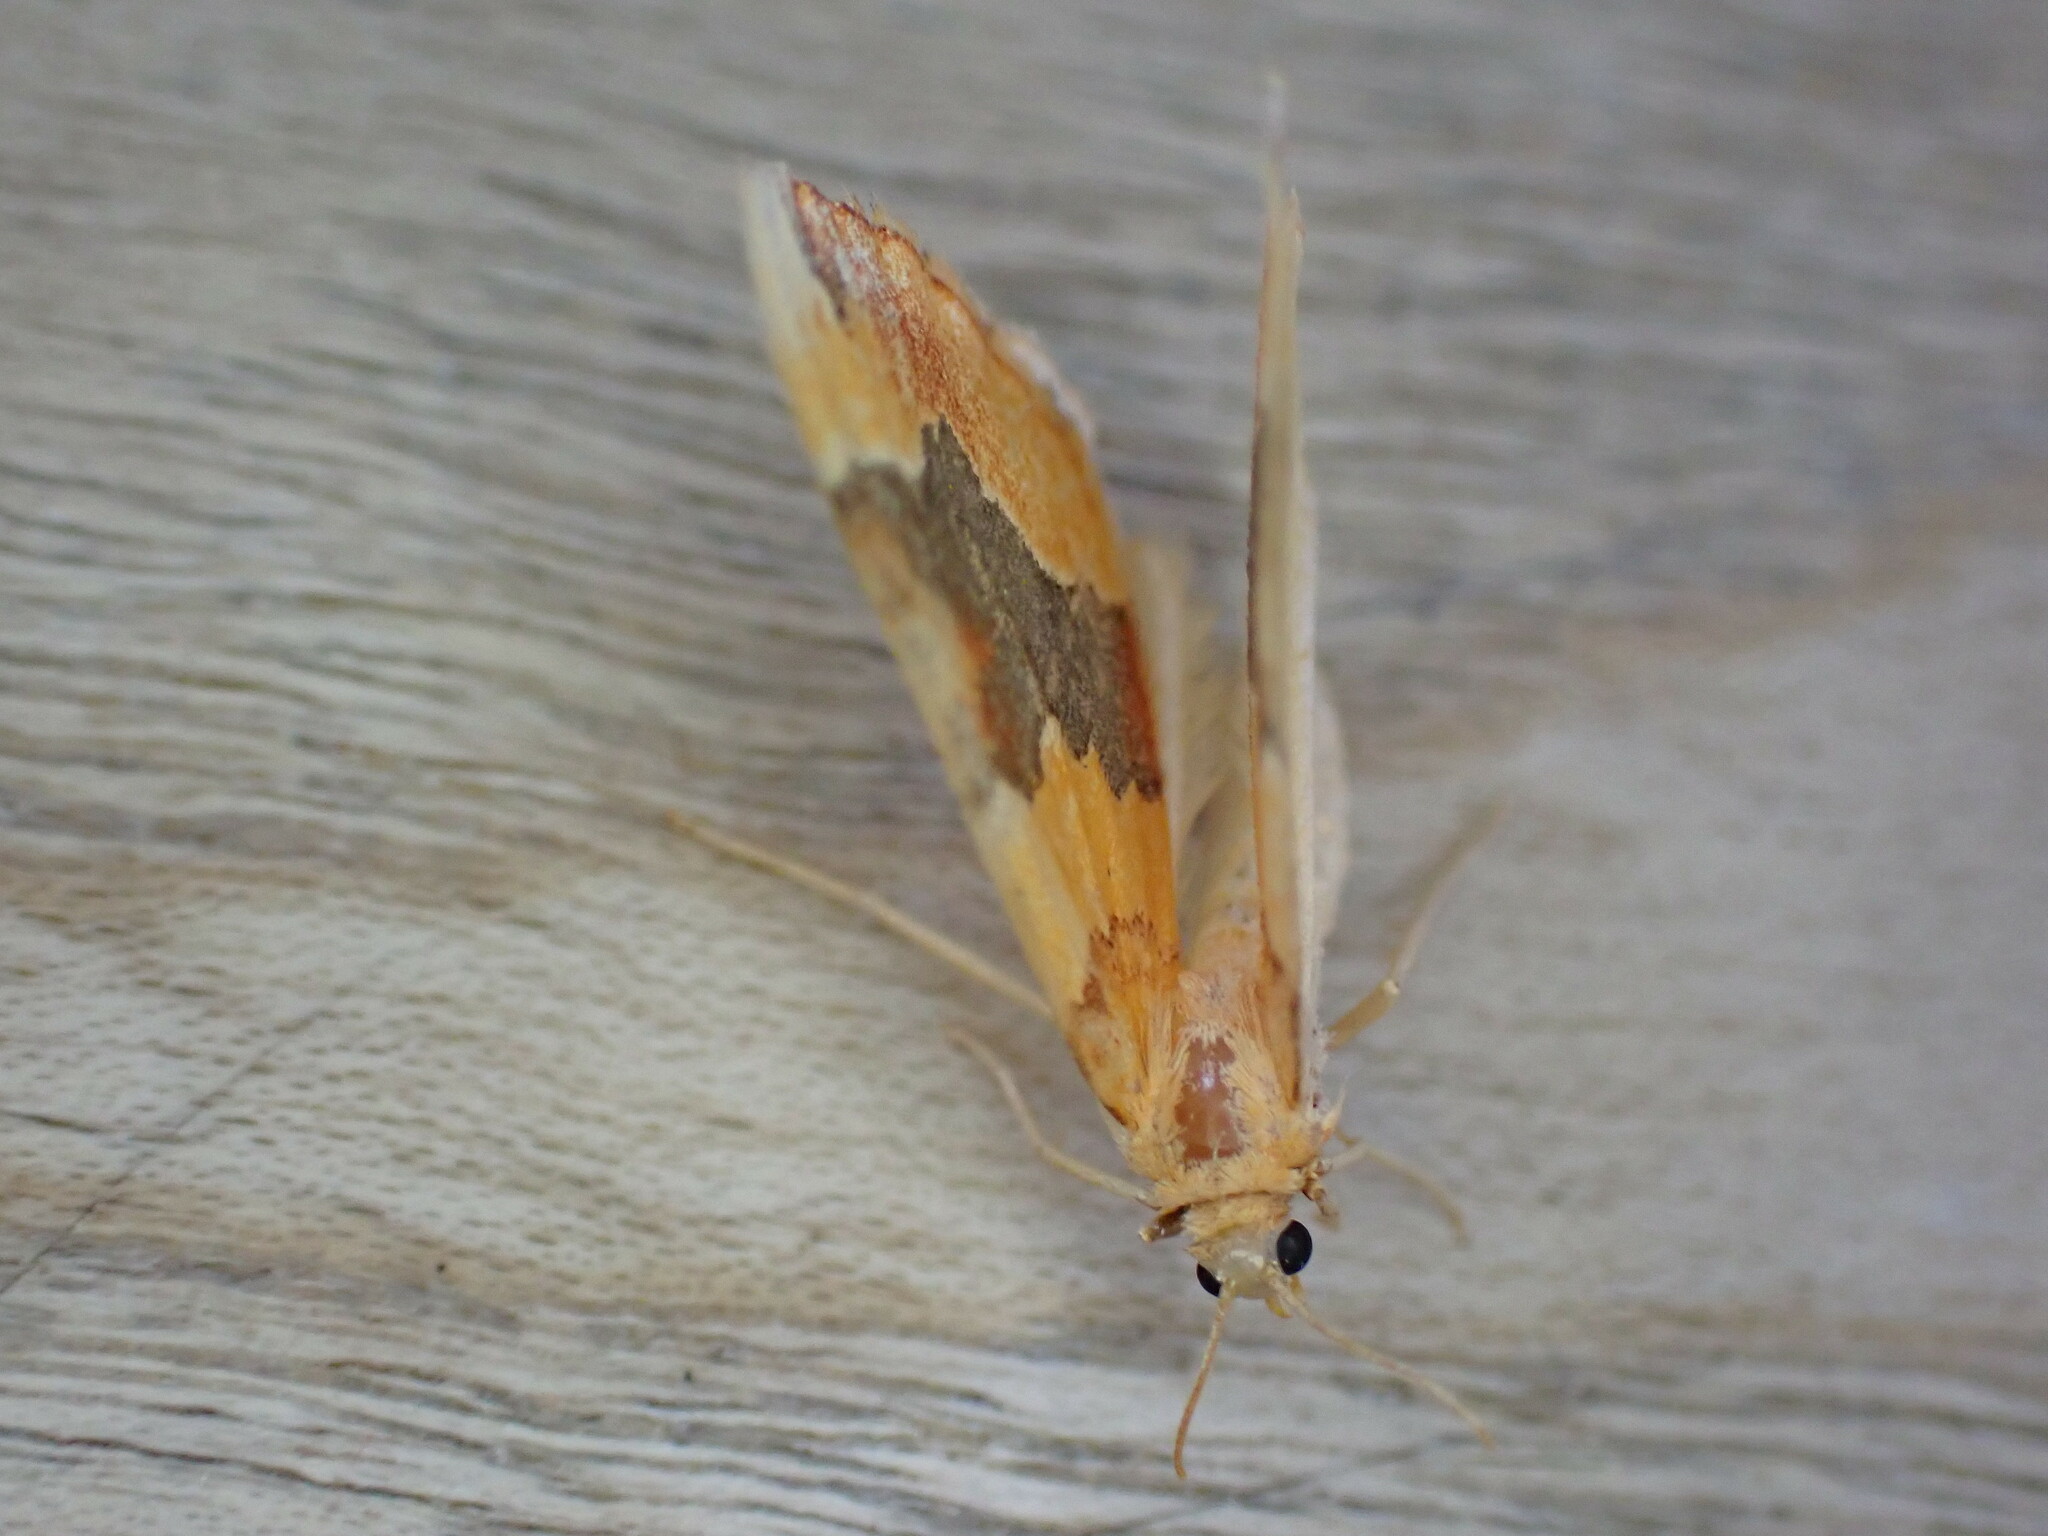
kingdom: Animalia
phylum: Arthropoda
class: Insecta
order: Lepidoptera
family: Geometridae
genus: Cidaria
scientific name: Cidaria fulvata
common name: Barred yellow
